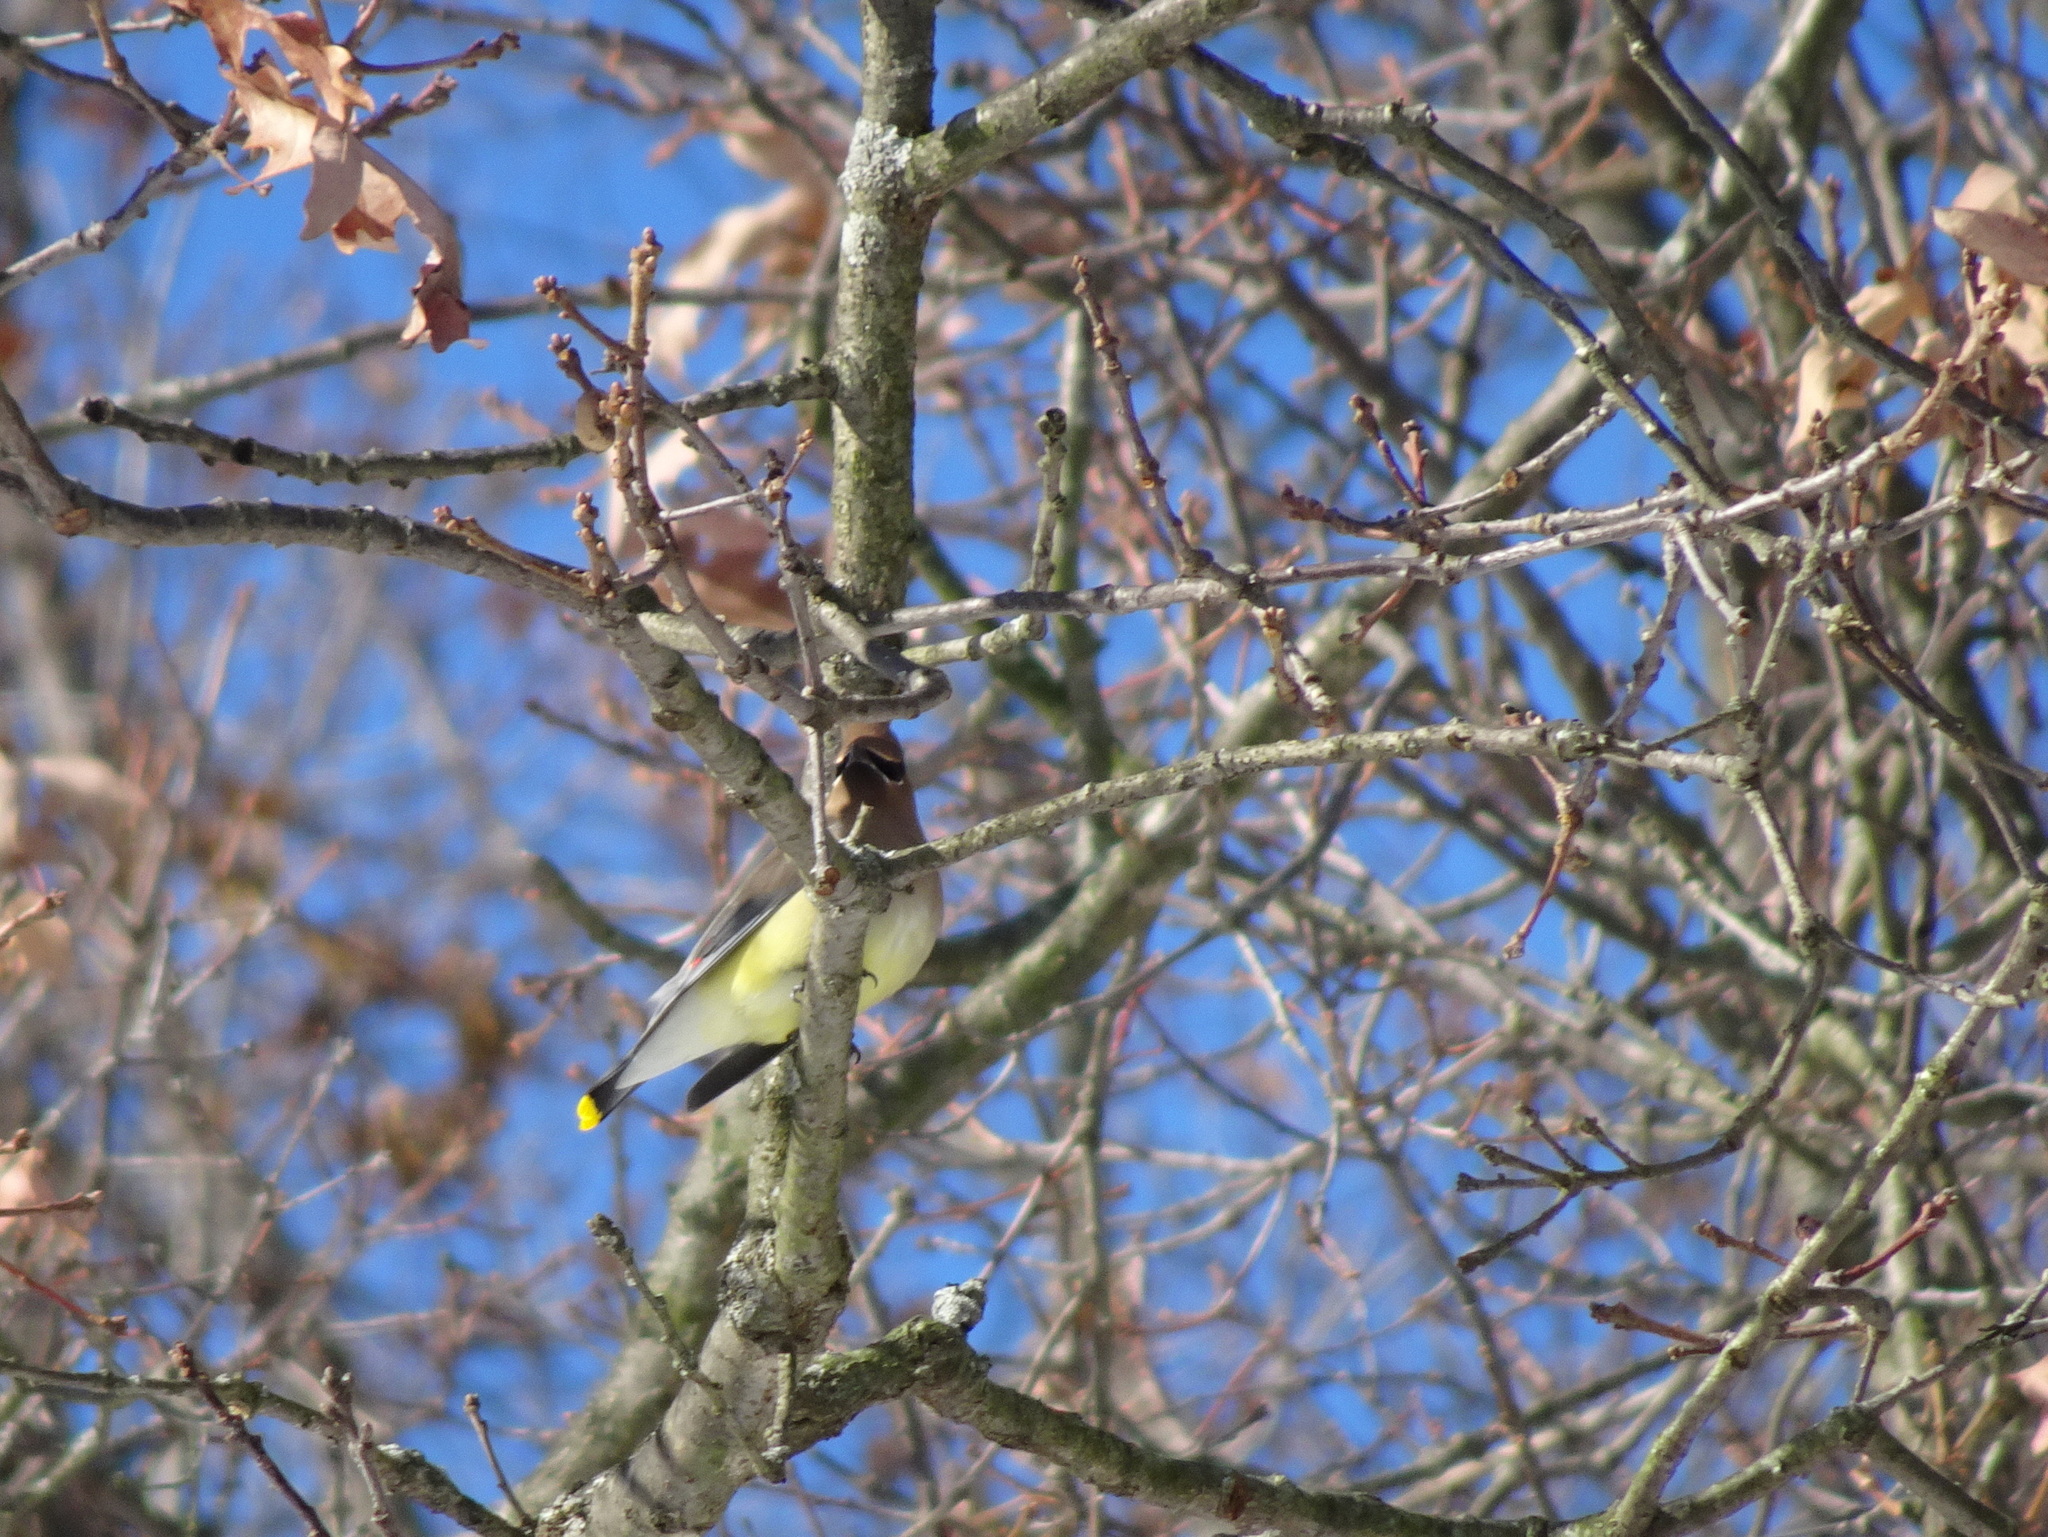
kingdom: Animalia
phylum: Chordata
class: Aves
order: Passeriformes
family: Bombycillidae
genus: Bombycilla
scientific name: Bombycilla cedrorum
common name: Cedar waxwing
